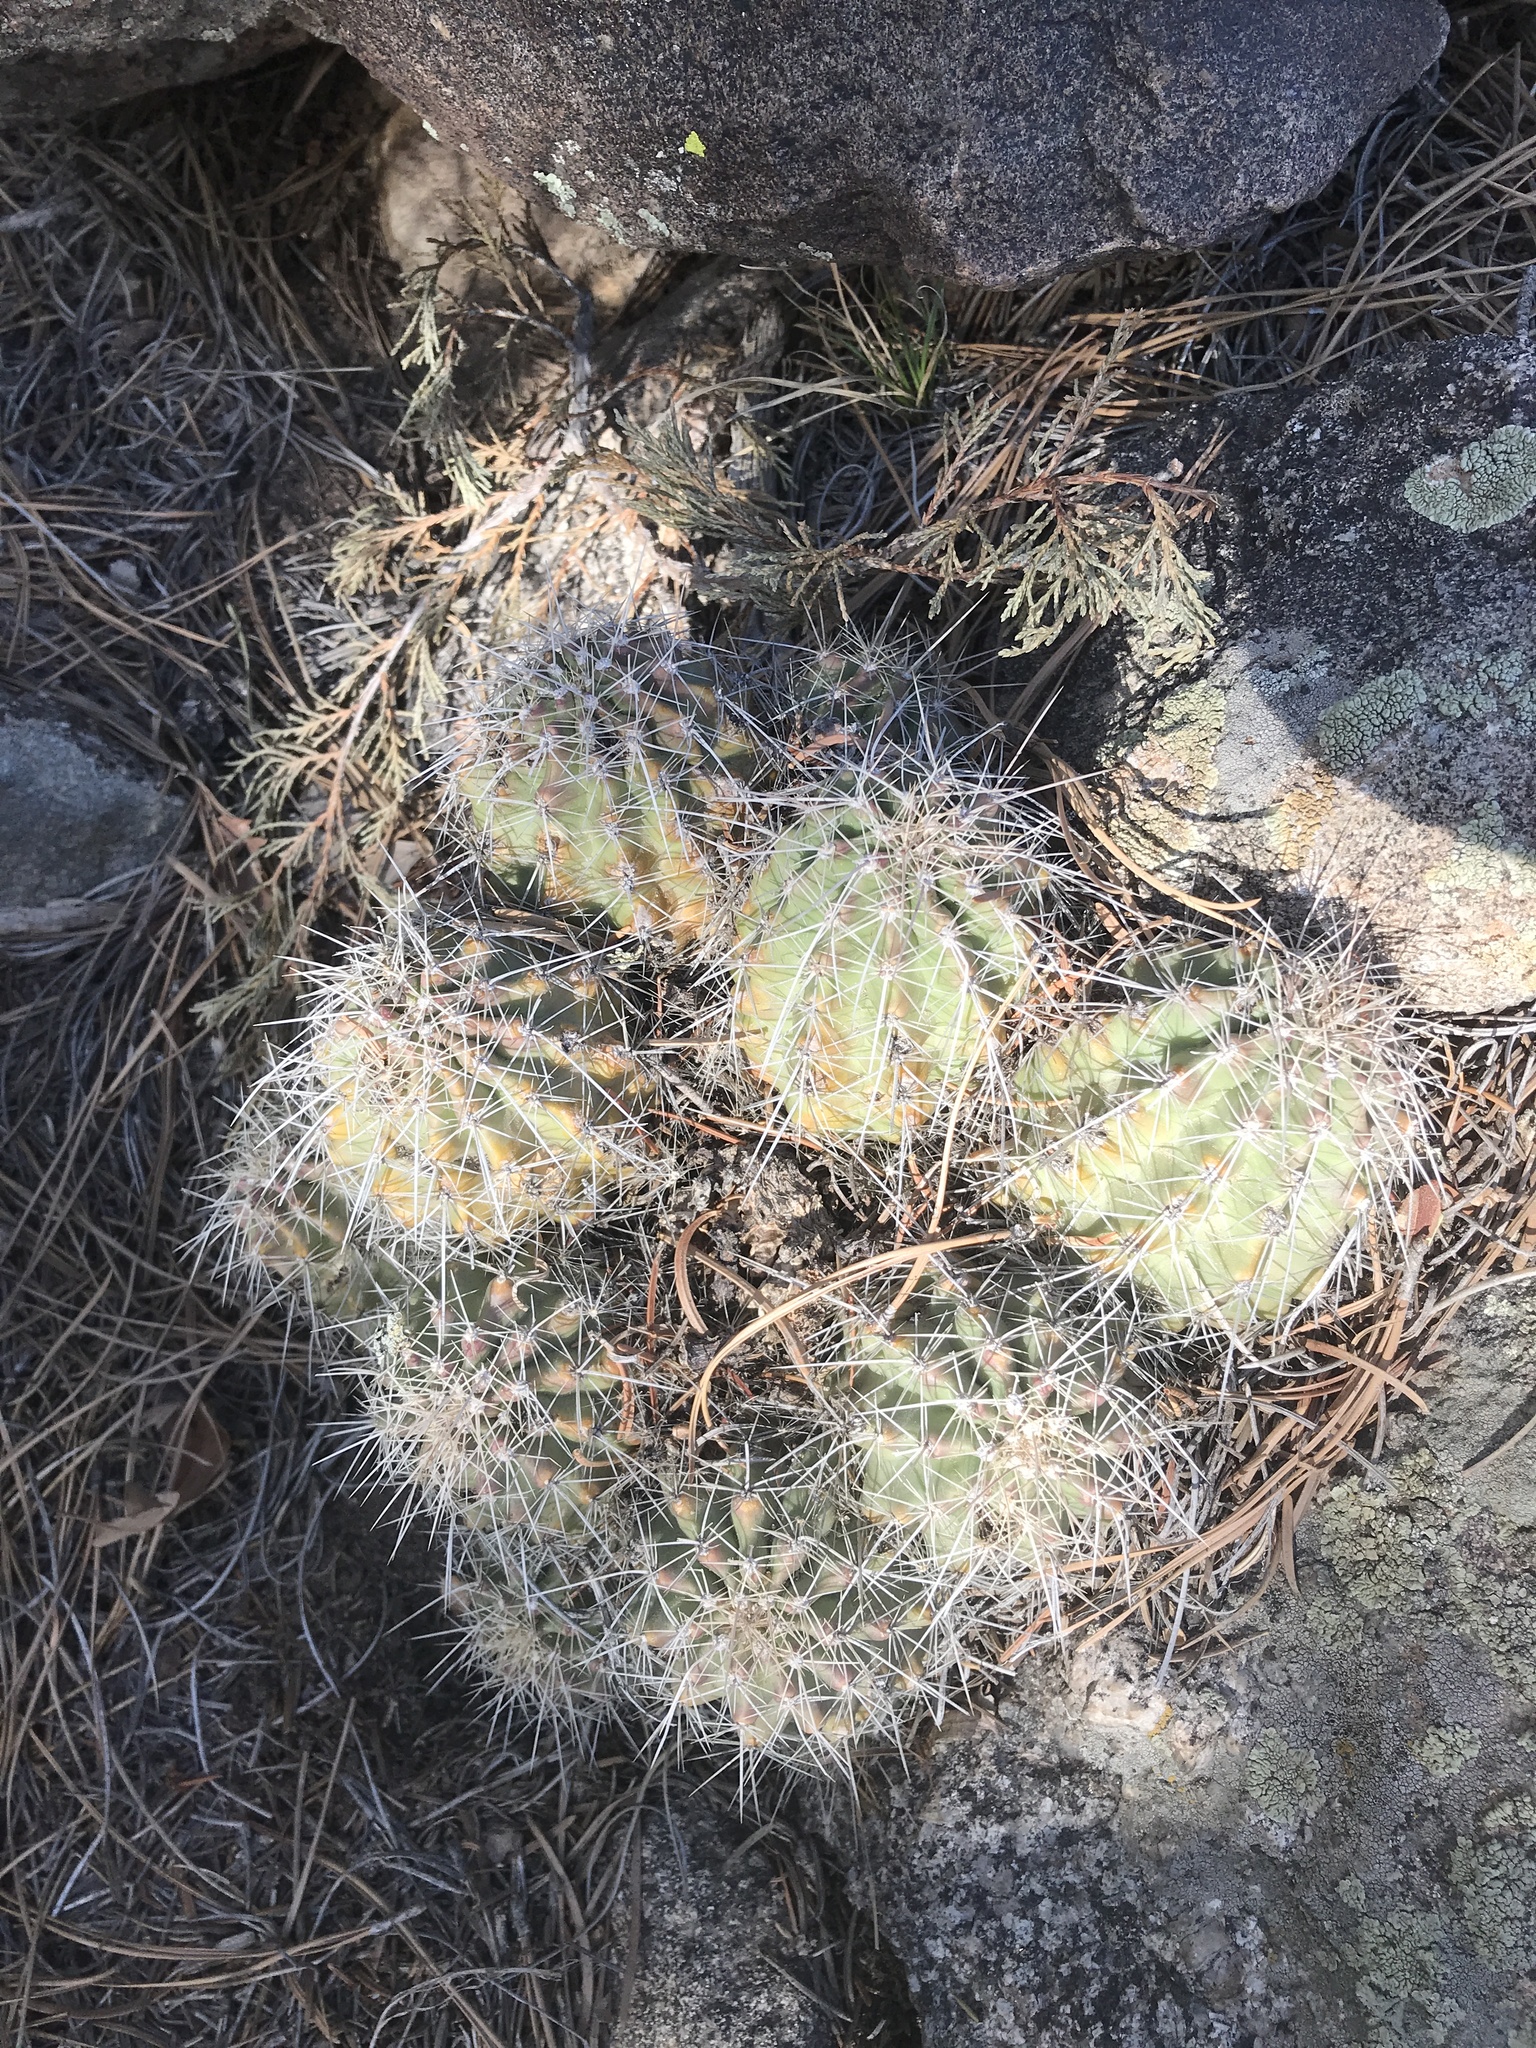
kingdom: Plantae
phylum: Tracheophyta
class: Magnoliopsida
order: Caryophyllales
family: Cactaceae
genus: Echinocereus
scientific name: Echinocereus coccineus
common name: Scarlet hedgehog cactus
